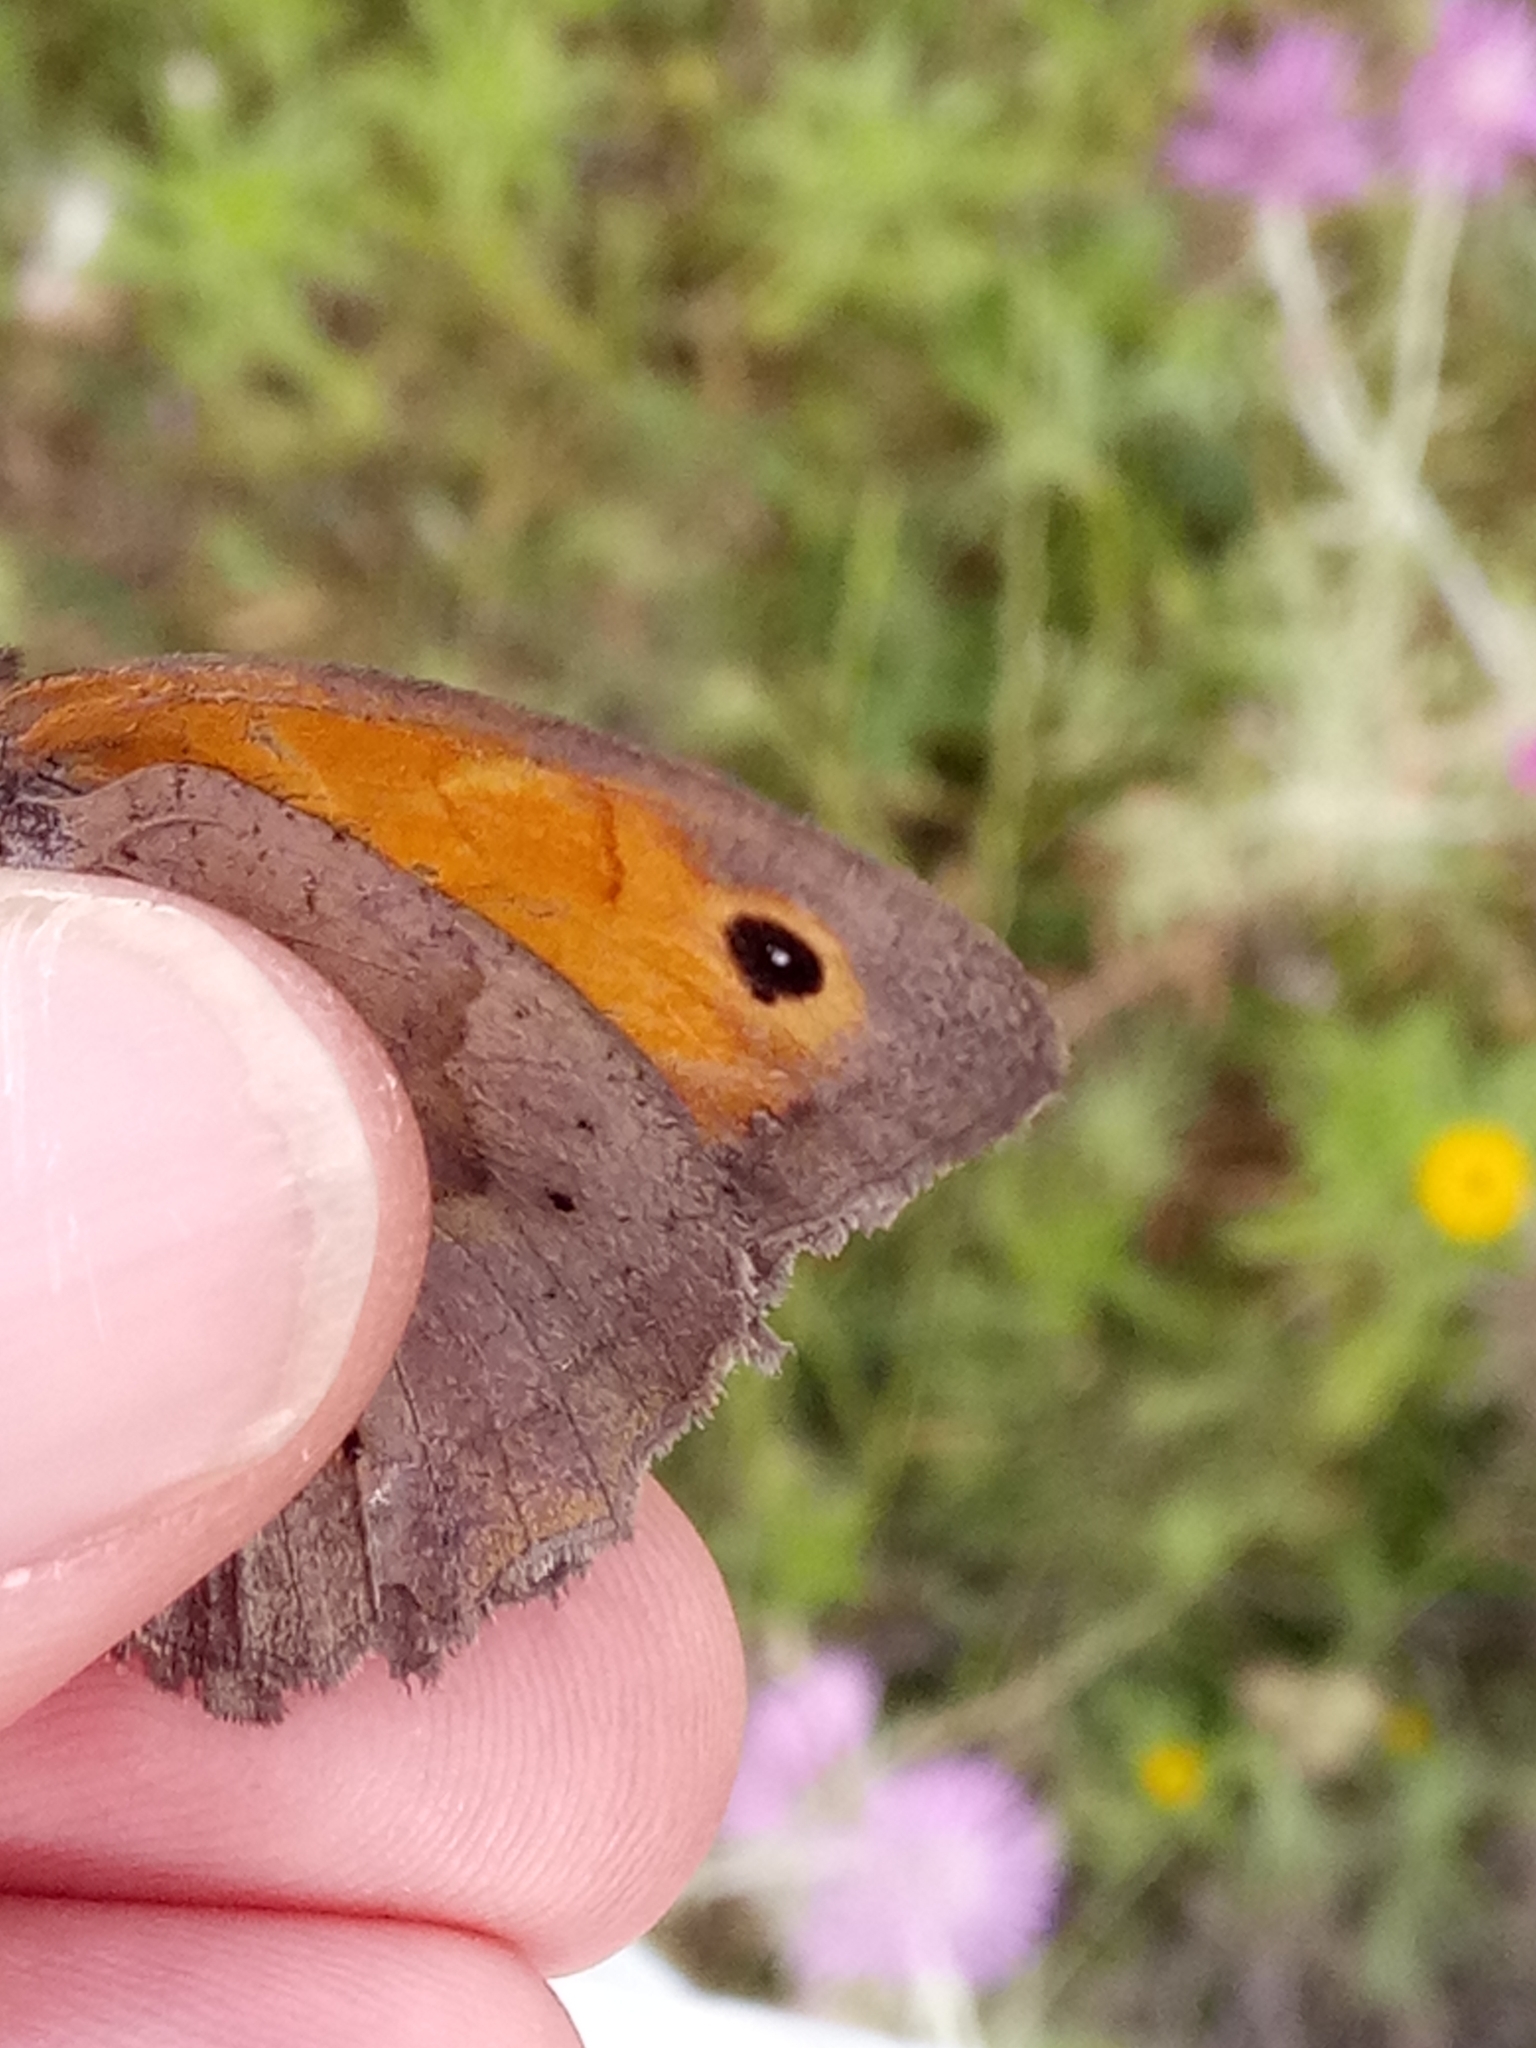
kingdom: Animalia
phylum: Arthropoda
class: Insecta
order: Lepidoptera
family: Nymphalidae
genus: Maniola
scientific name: Maniola jurtina
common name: Meadow brown
